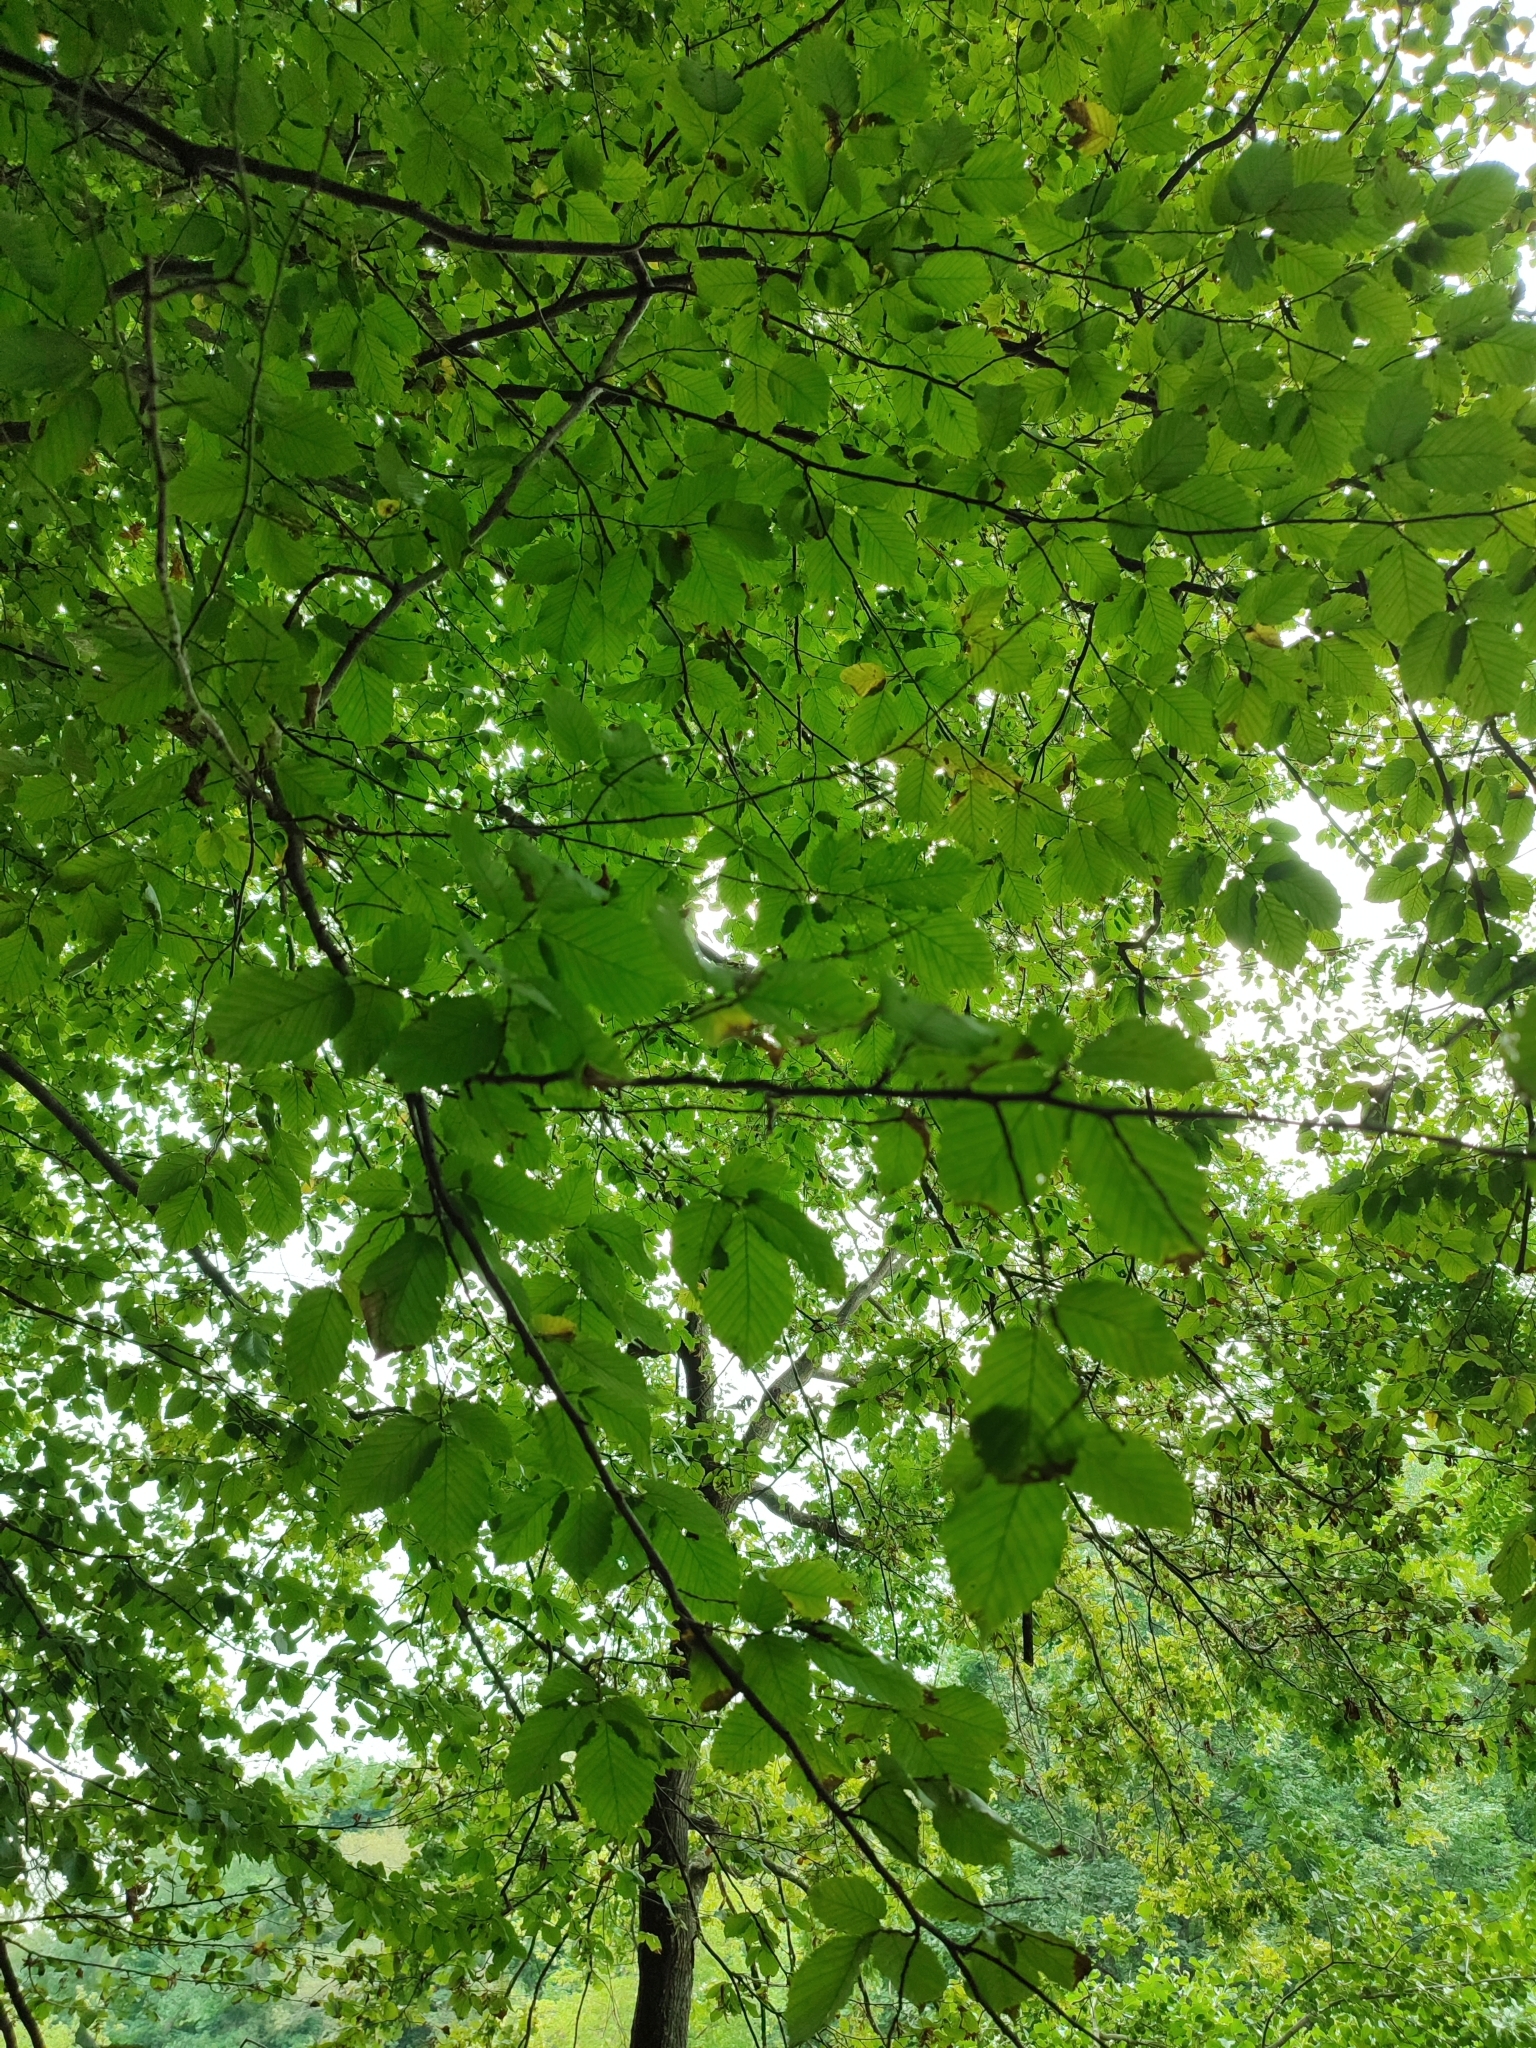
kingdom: Plantae
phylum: Tracheophyta
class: Magnoliopsida
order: Fagales
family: Betulaceae
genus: Carpinus
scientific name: Carpinus betulus
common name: Hornbeam
